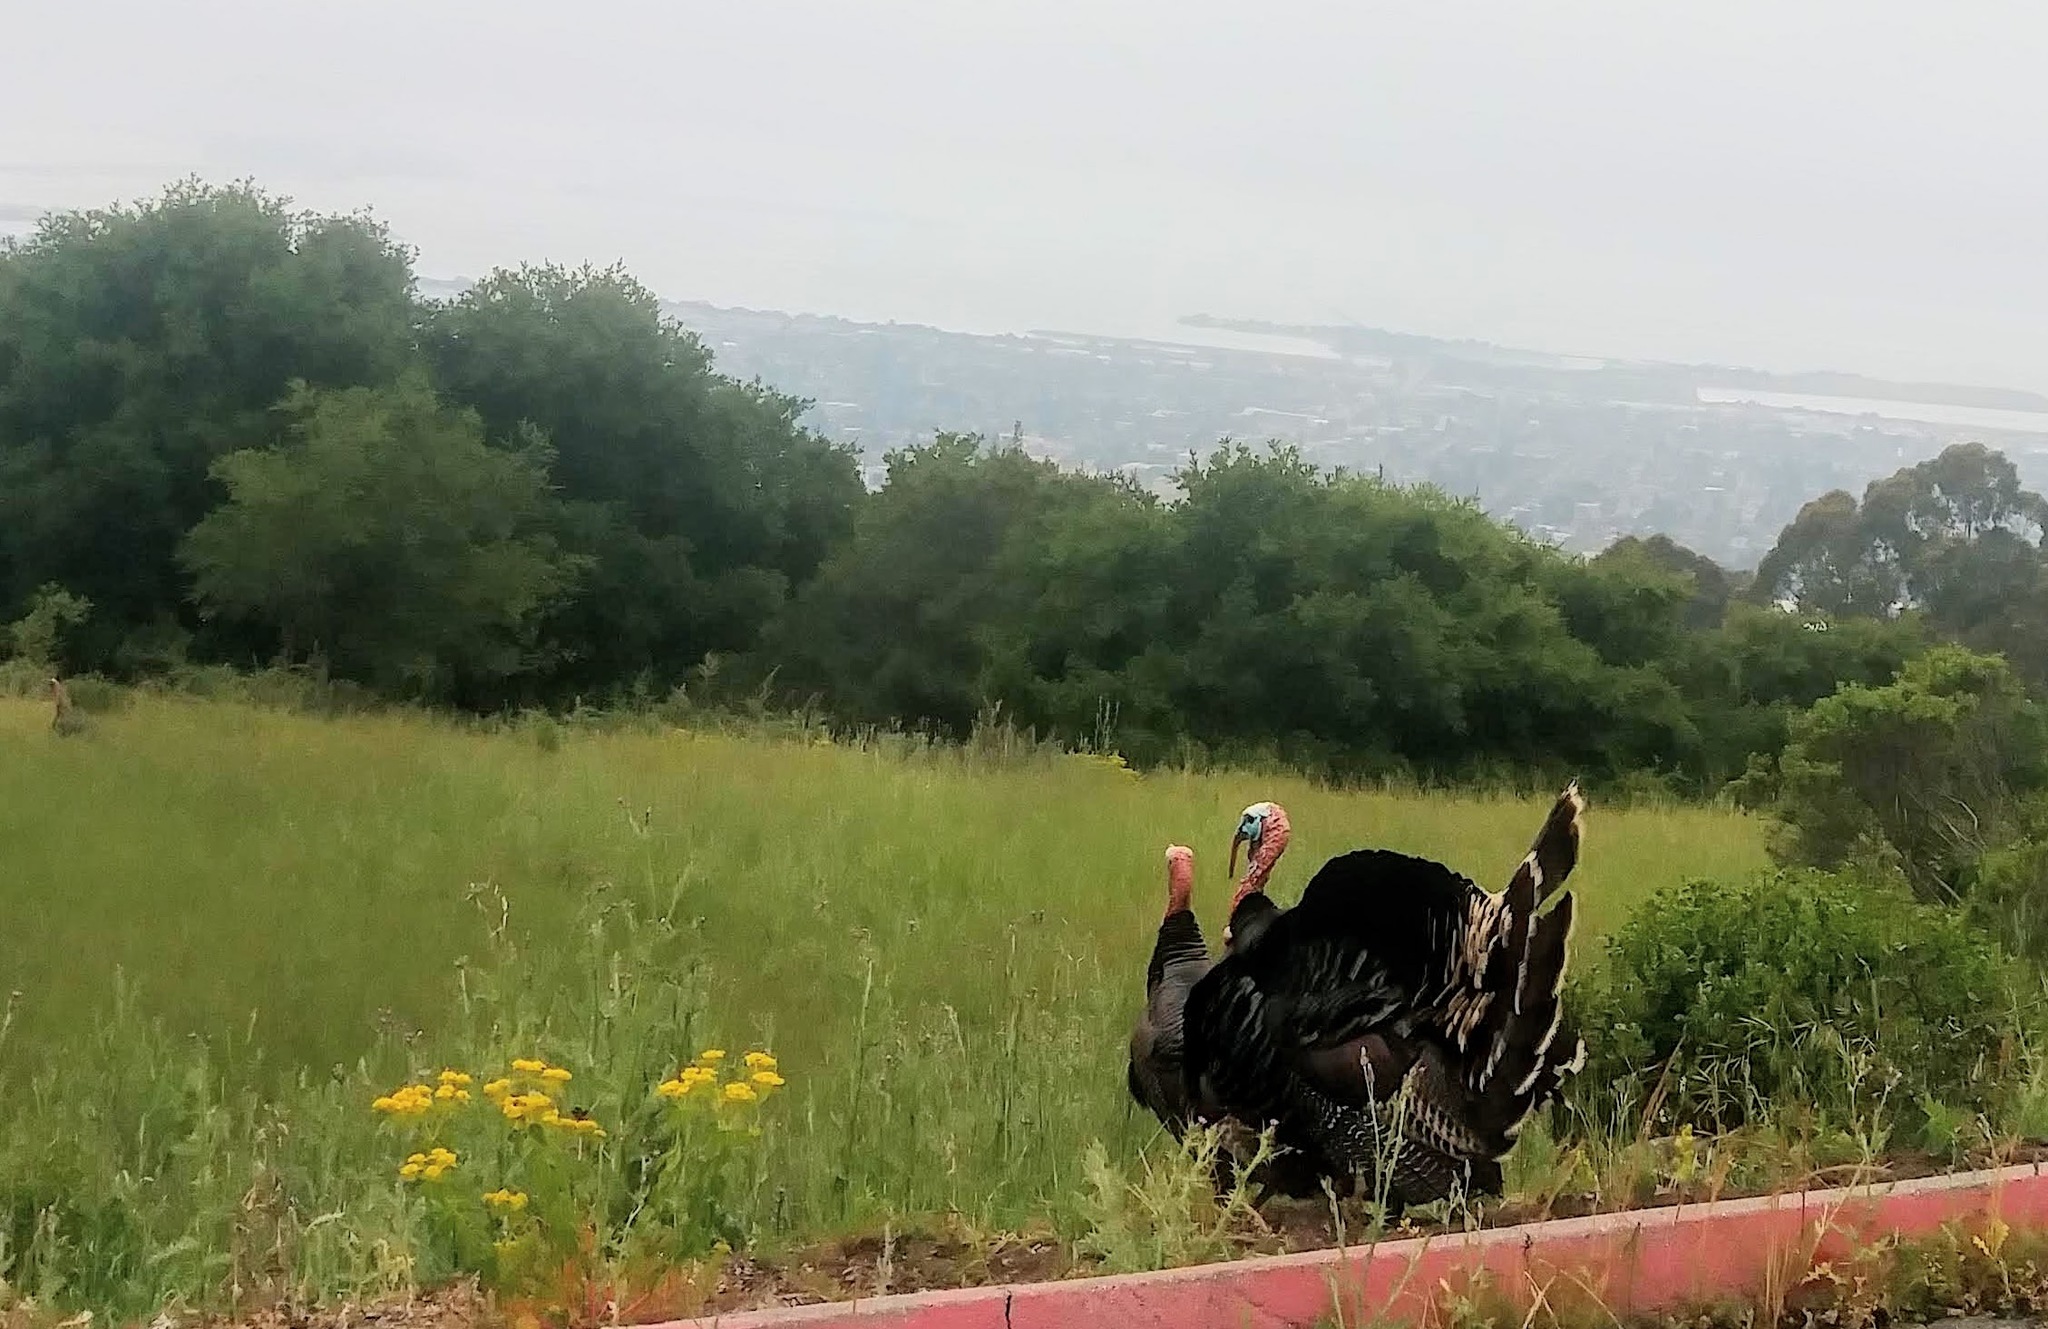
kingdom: Animalia
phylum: Chordata
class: Aves
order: Galliformes
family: Phasianidae
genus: Meleagris
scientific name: Meleagris gallopavo
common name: Wild turkey
